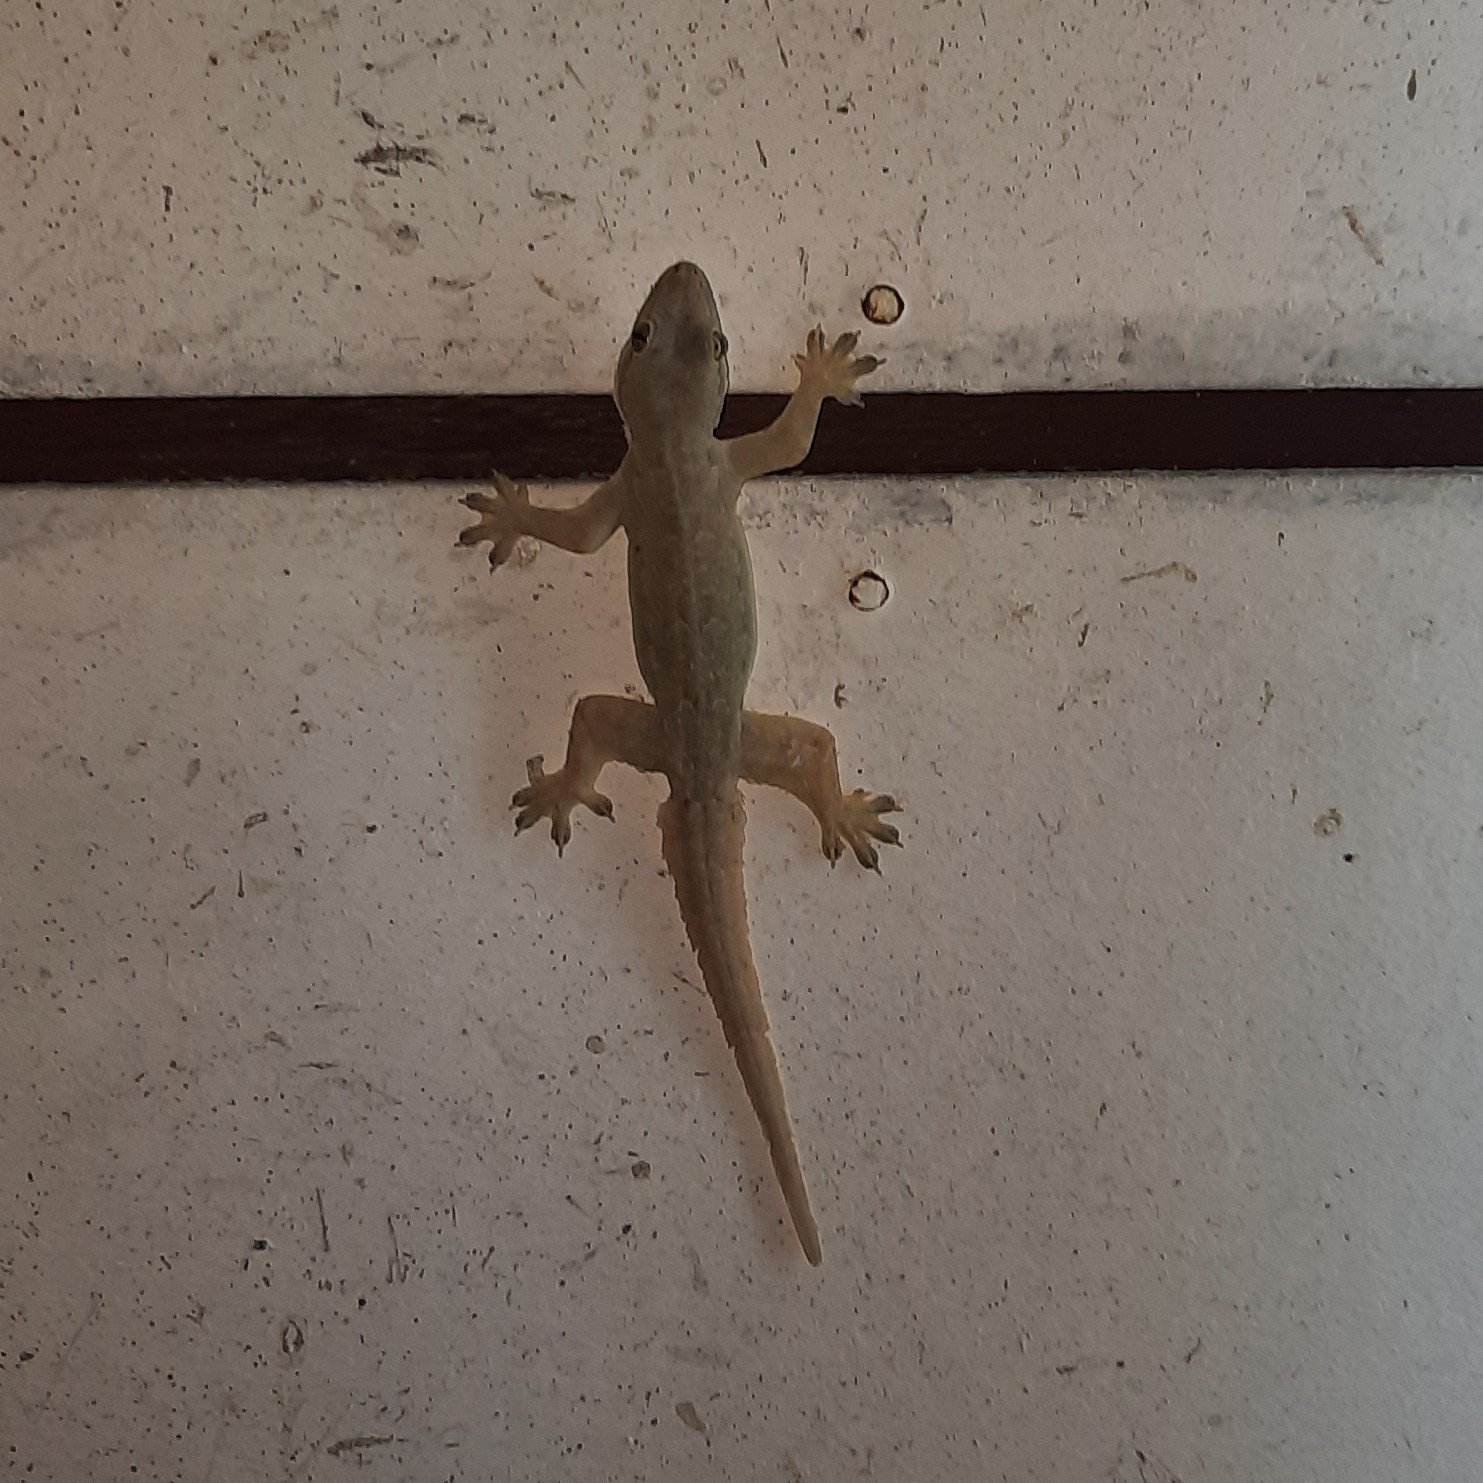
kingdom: Animalia
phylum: Chordata
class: Squamata
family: Gekkonidae
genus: Hemidactylus
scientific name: Hemidactylus platyurus
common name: Flat-tailed house gecko
